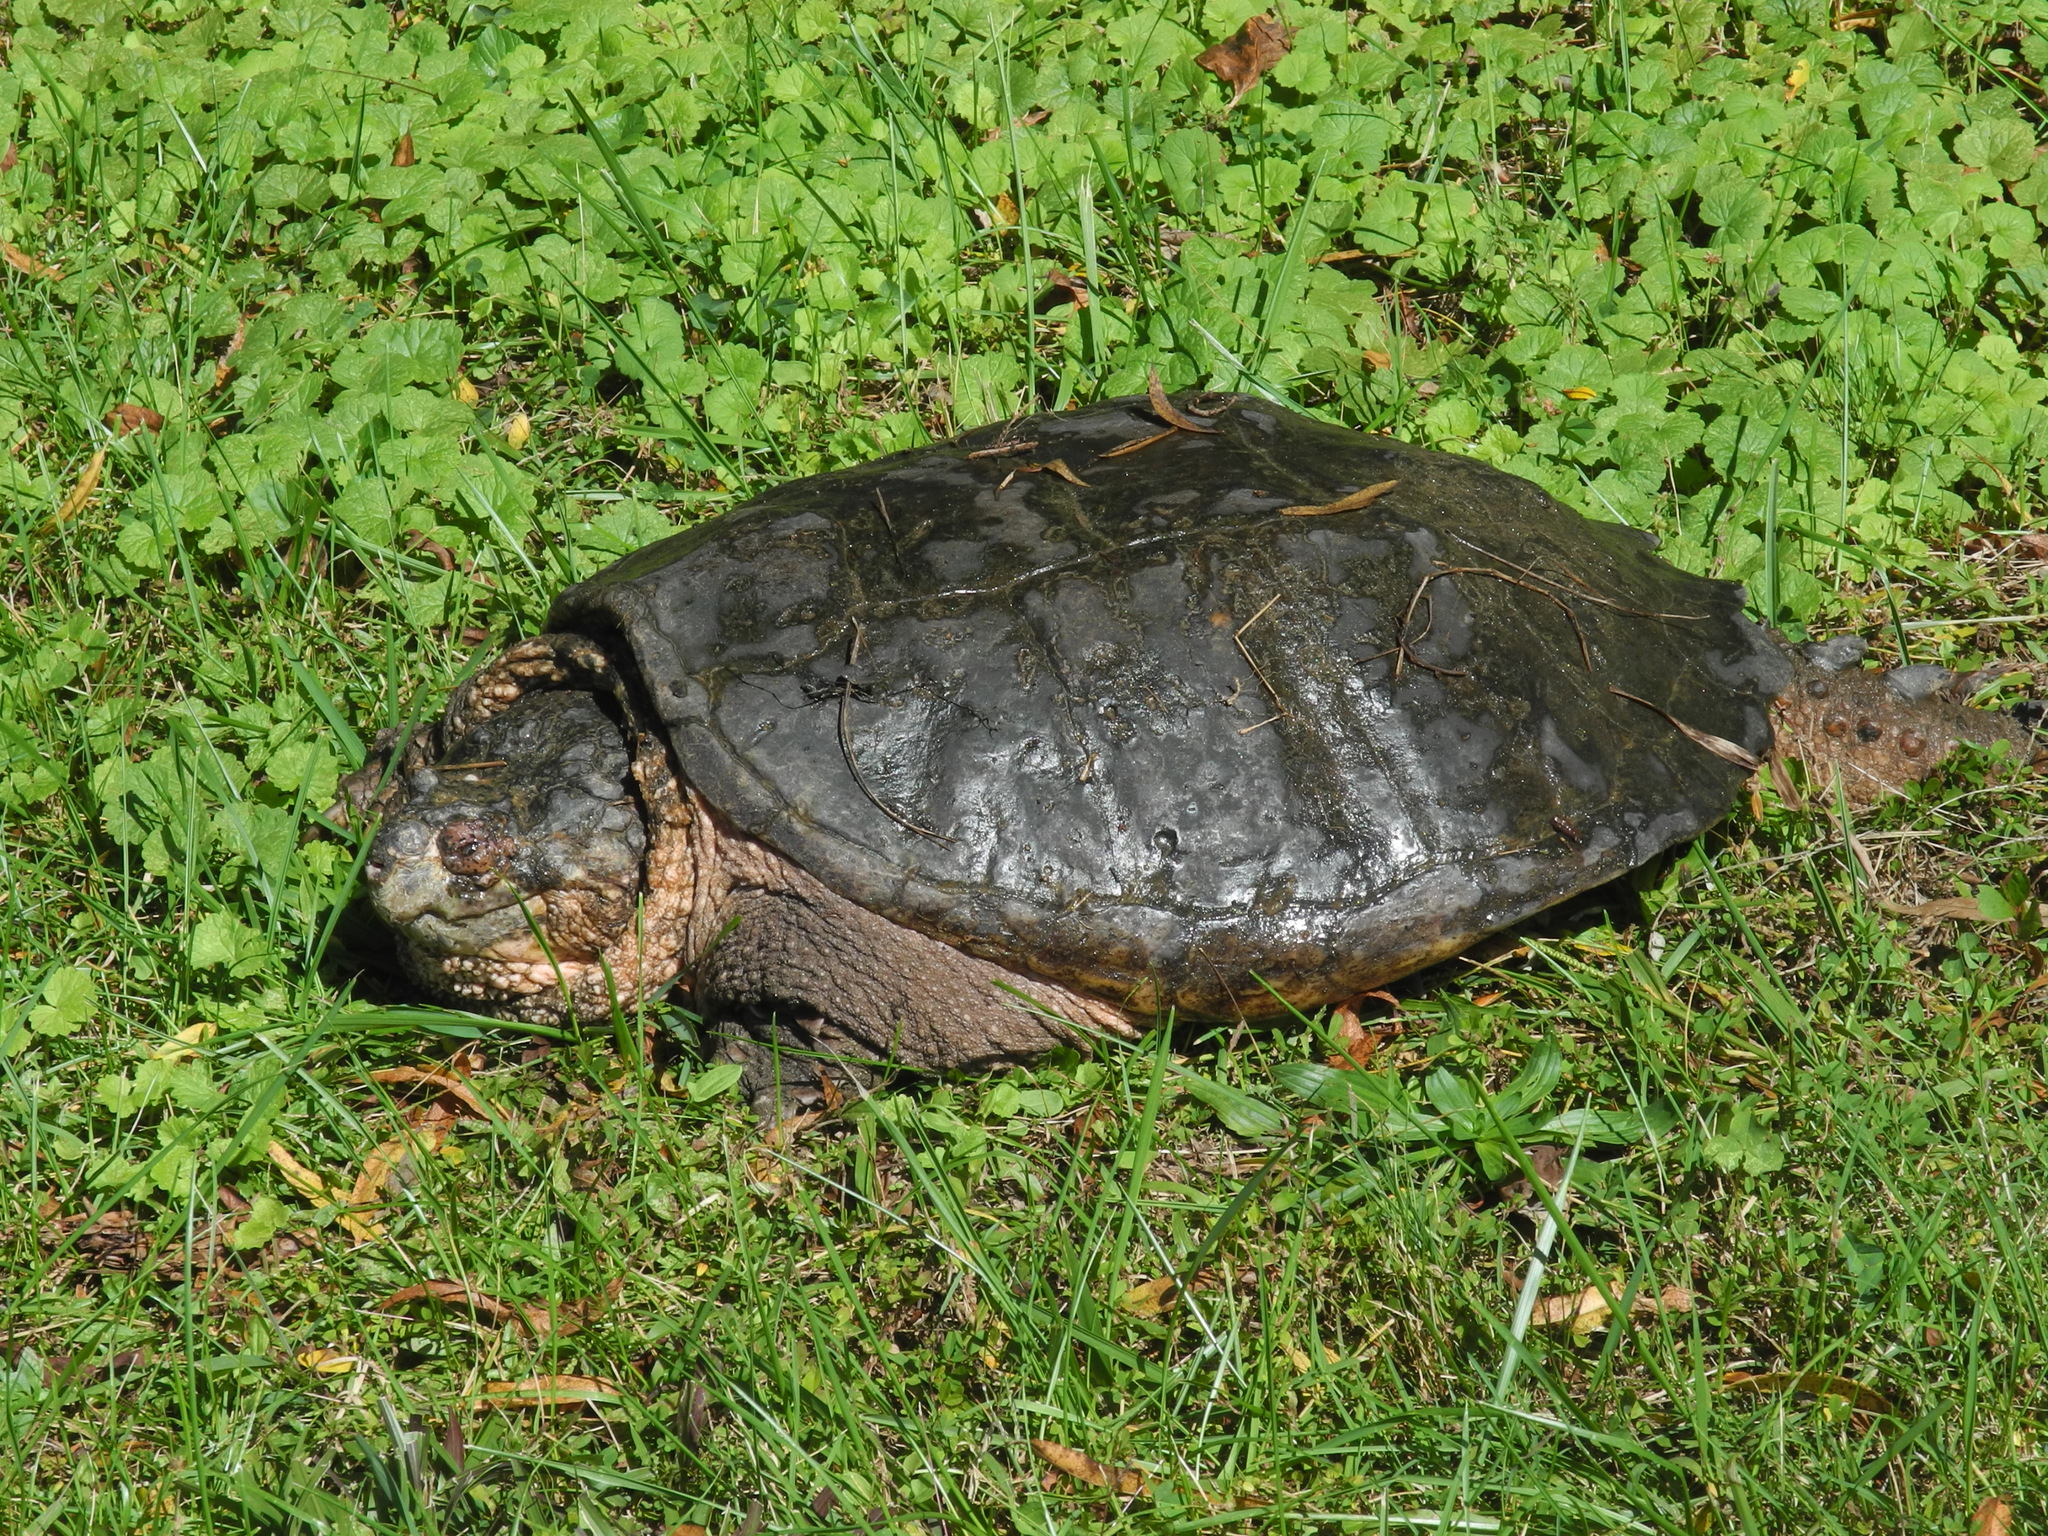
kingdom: Animalia
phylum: Chordata
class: Testudines
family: Chelydridae
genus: Chelydra
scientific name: Chelydra serpentina
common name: Common snapping turtle
